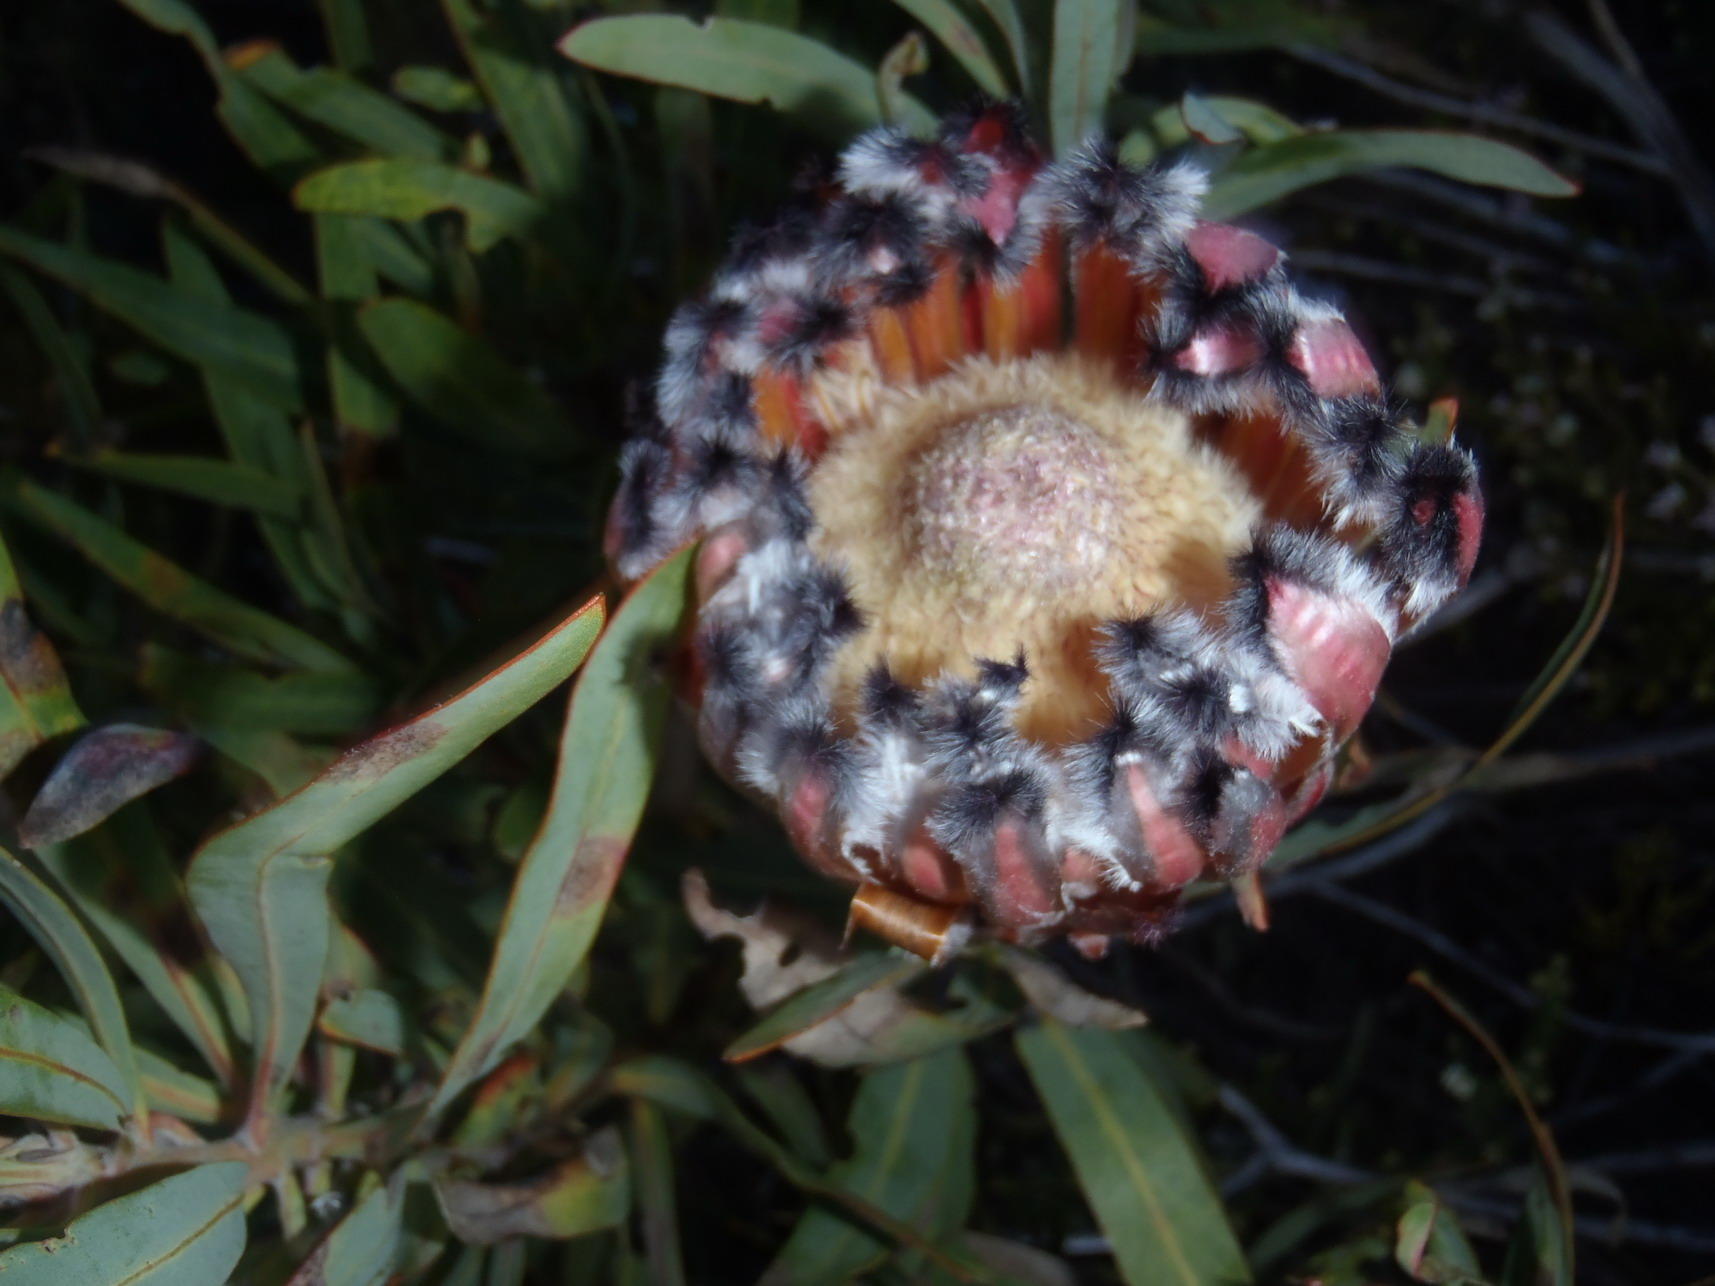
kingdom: Plantae
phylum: Tracheophyta
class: Magnoliopsida
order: Proteales
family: Proteaceae
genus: Protea
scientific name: Protea neriifolia
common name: Blue sugarbush
